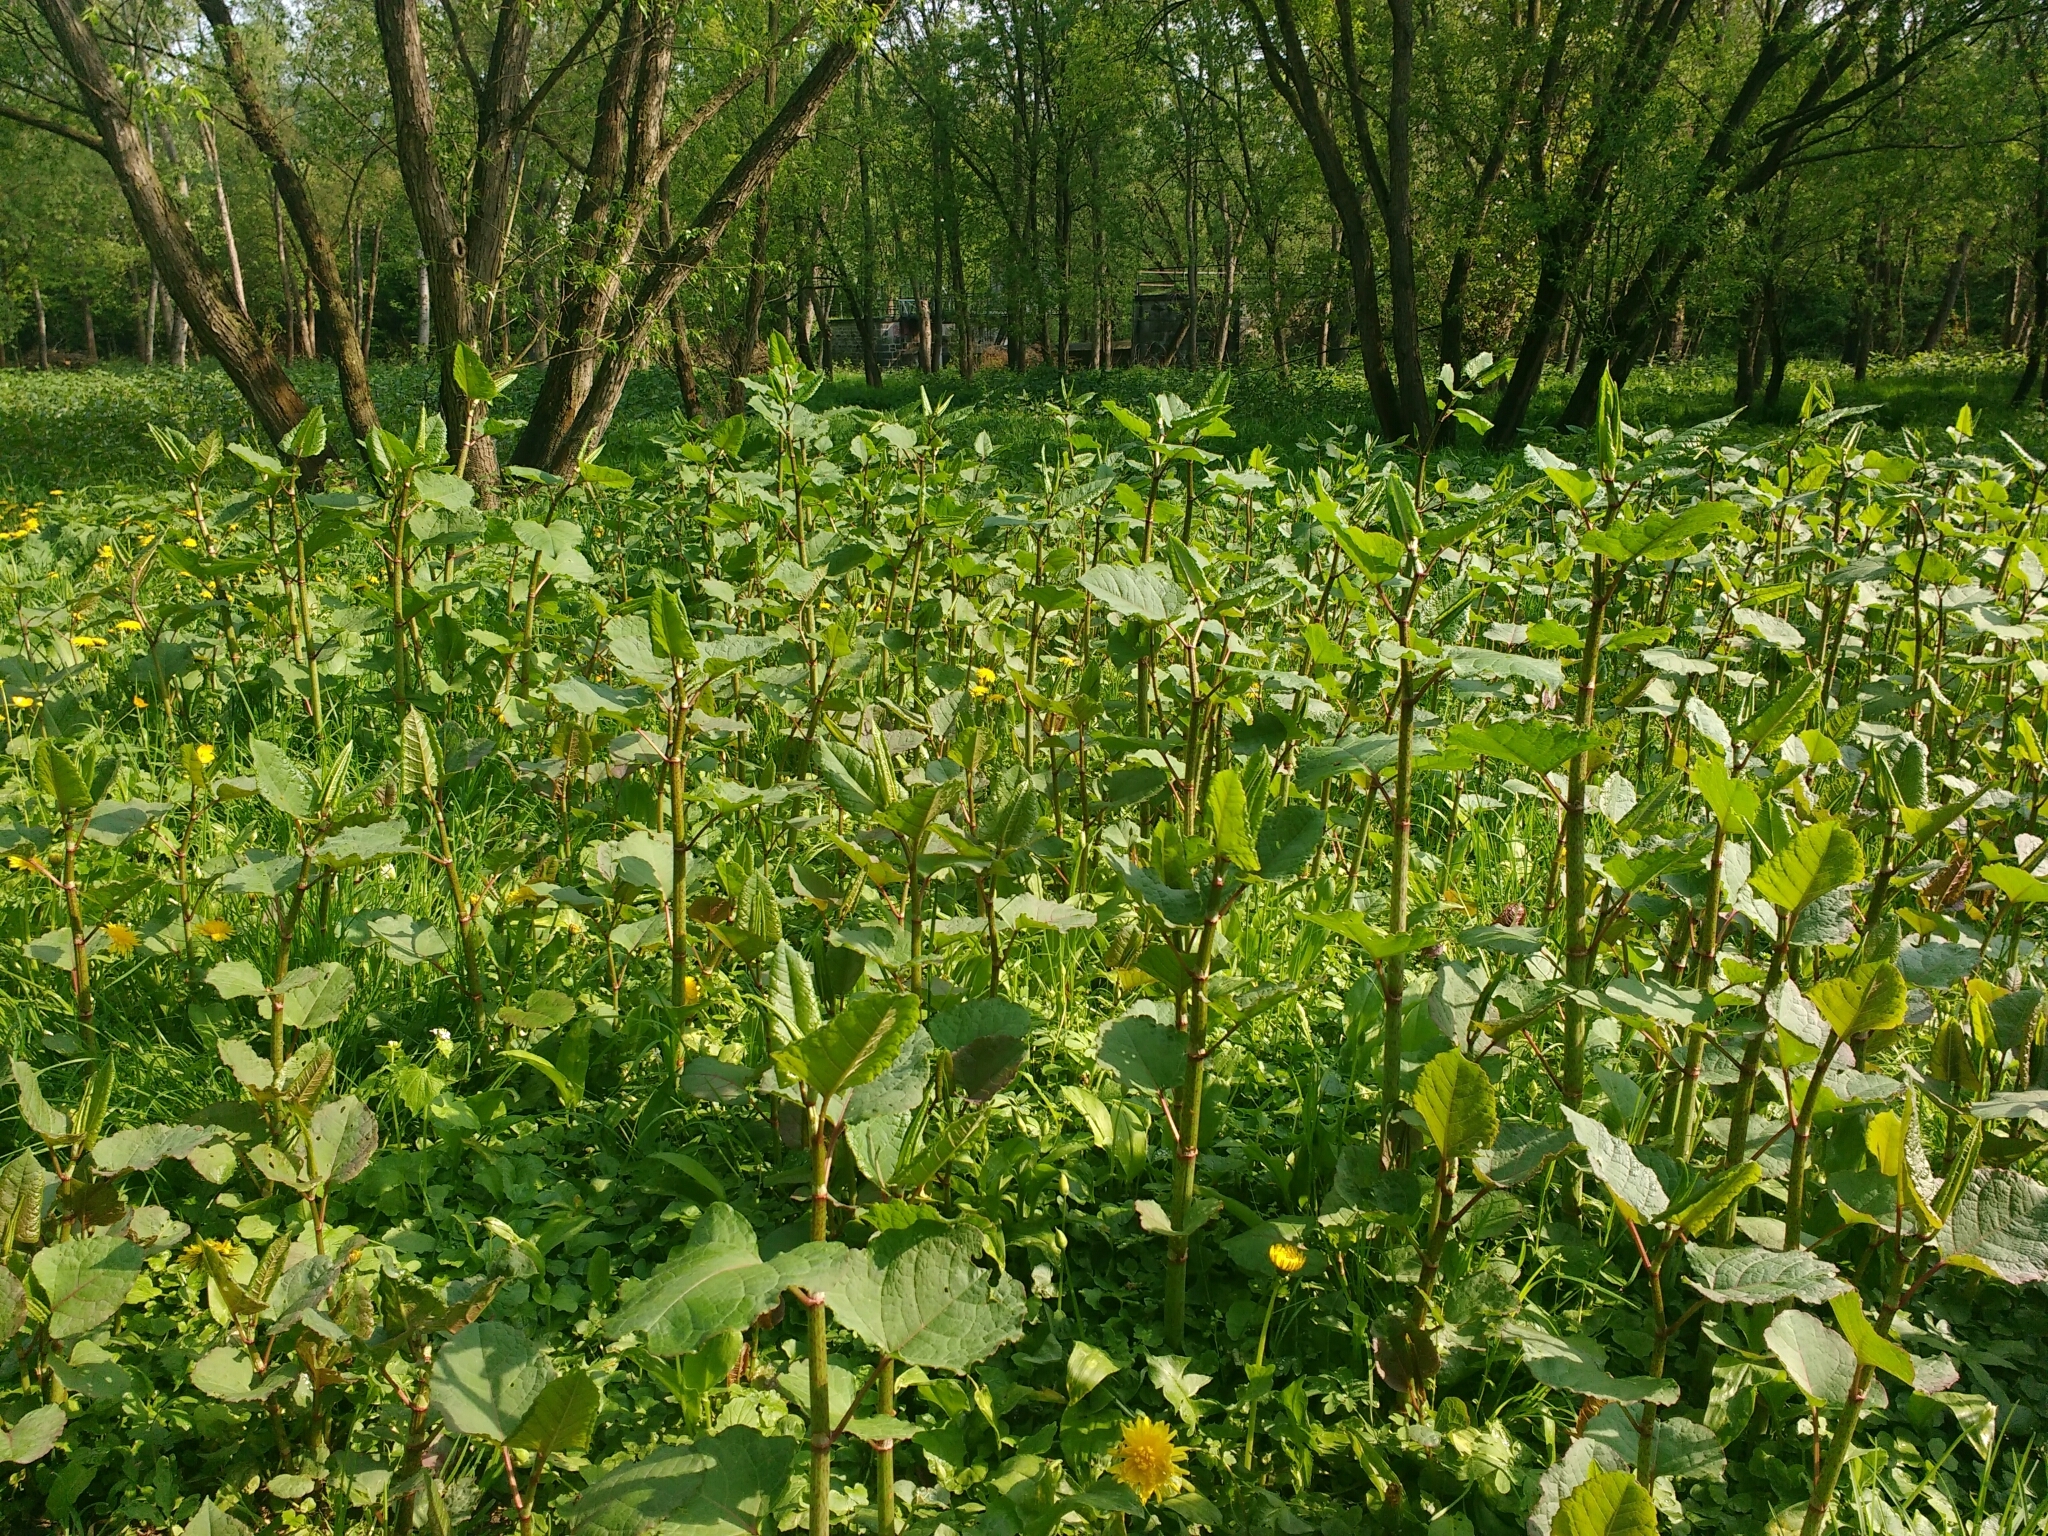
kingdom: Plantae
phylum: Tracheophyta
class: Magnoliopsida
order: Caryophyllales
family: Polygonaceae
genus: Reynoutria
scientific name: Reynoutria japonica
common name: Japanese knotweed
